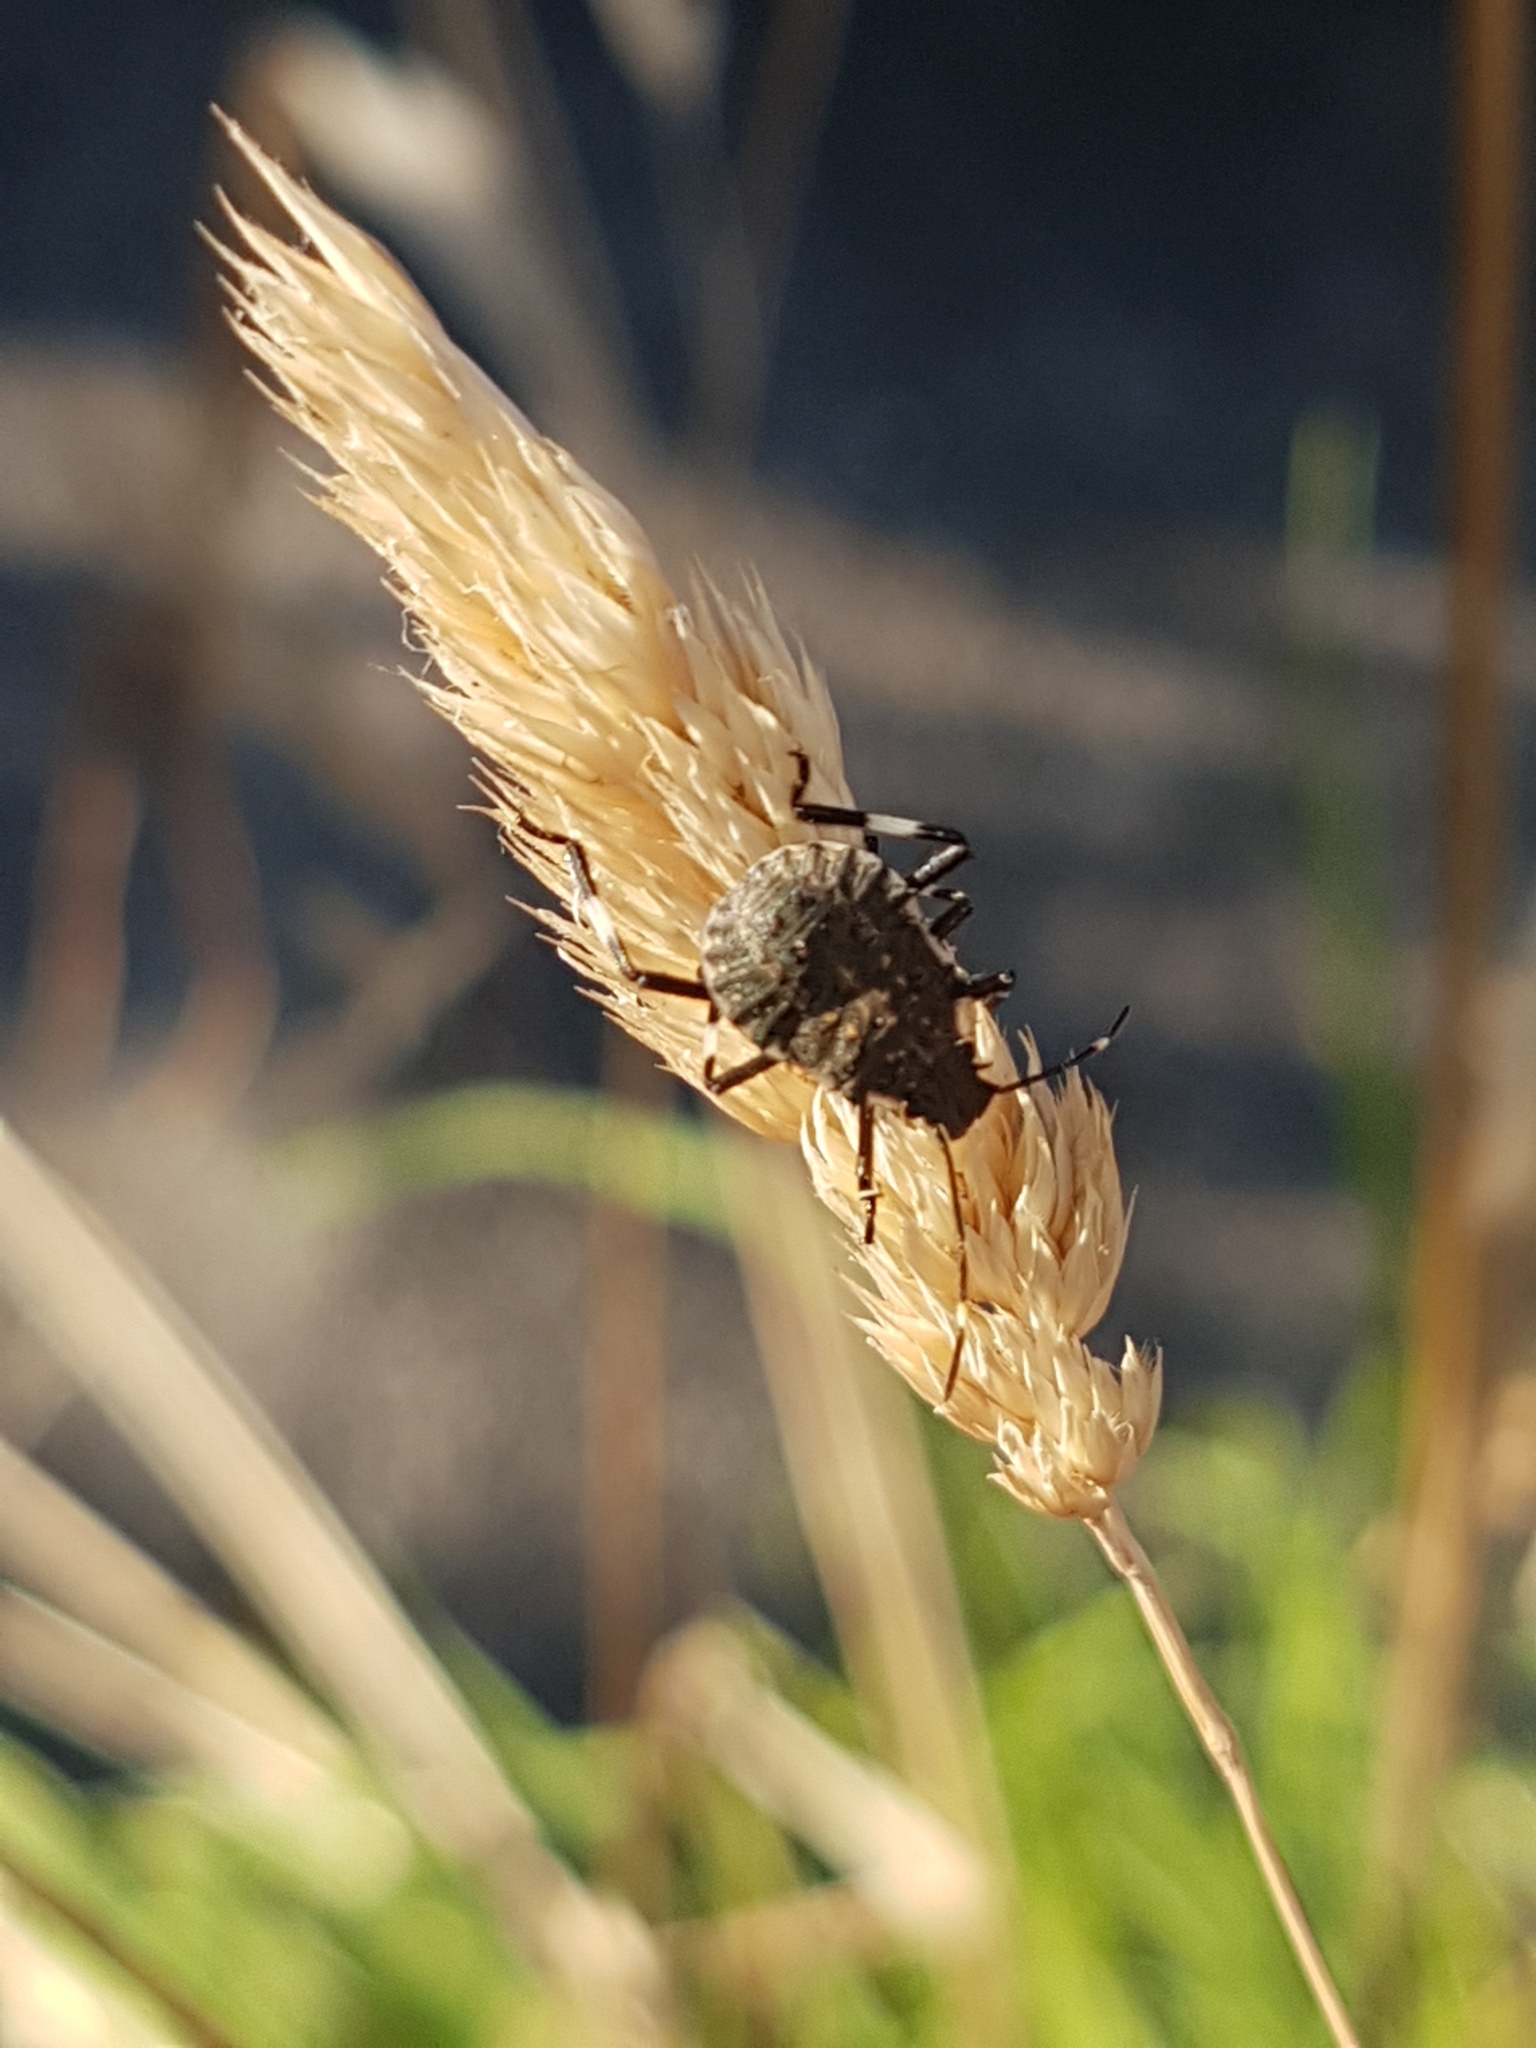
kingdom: Animalia
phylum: Arthropoda
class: Insecta
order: Hemiptera
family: Pentatomidae
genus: Halyomorpha
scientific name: Halyomorpha halys
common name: Brown marmorated stink bug
